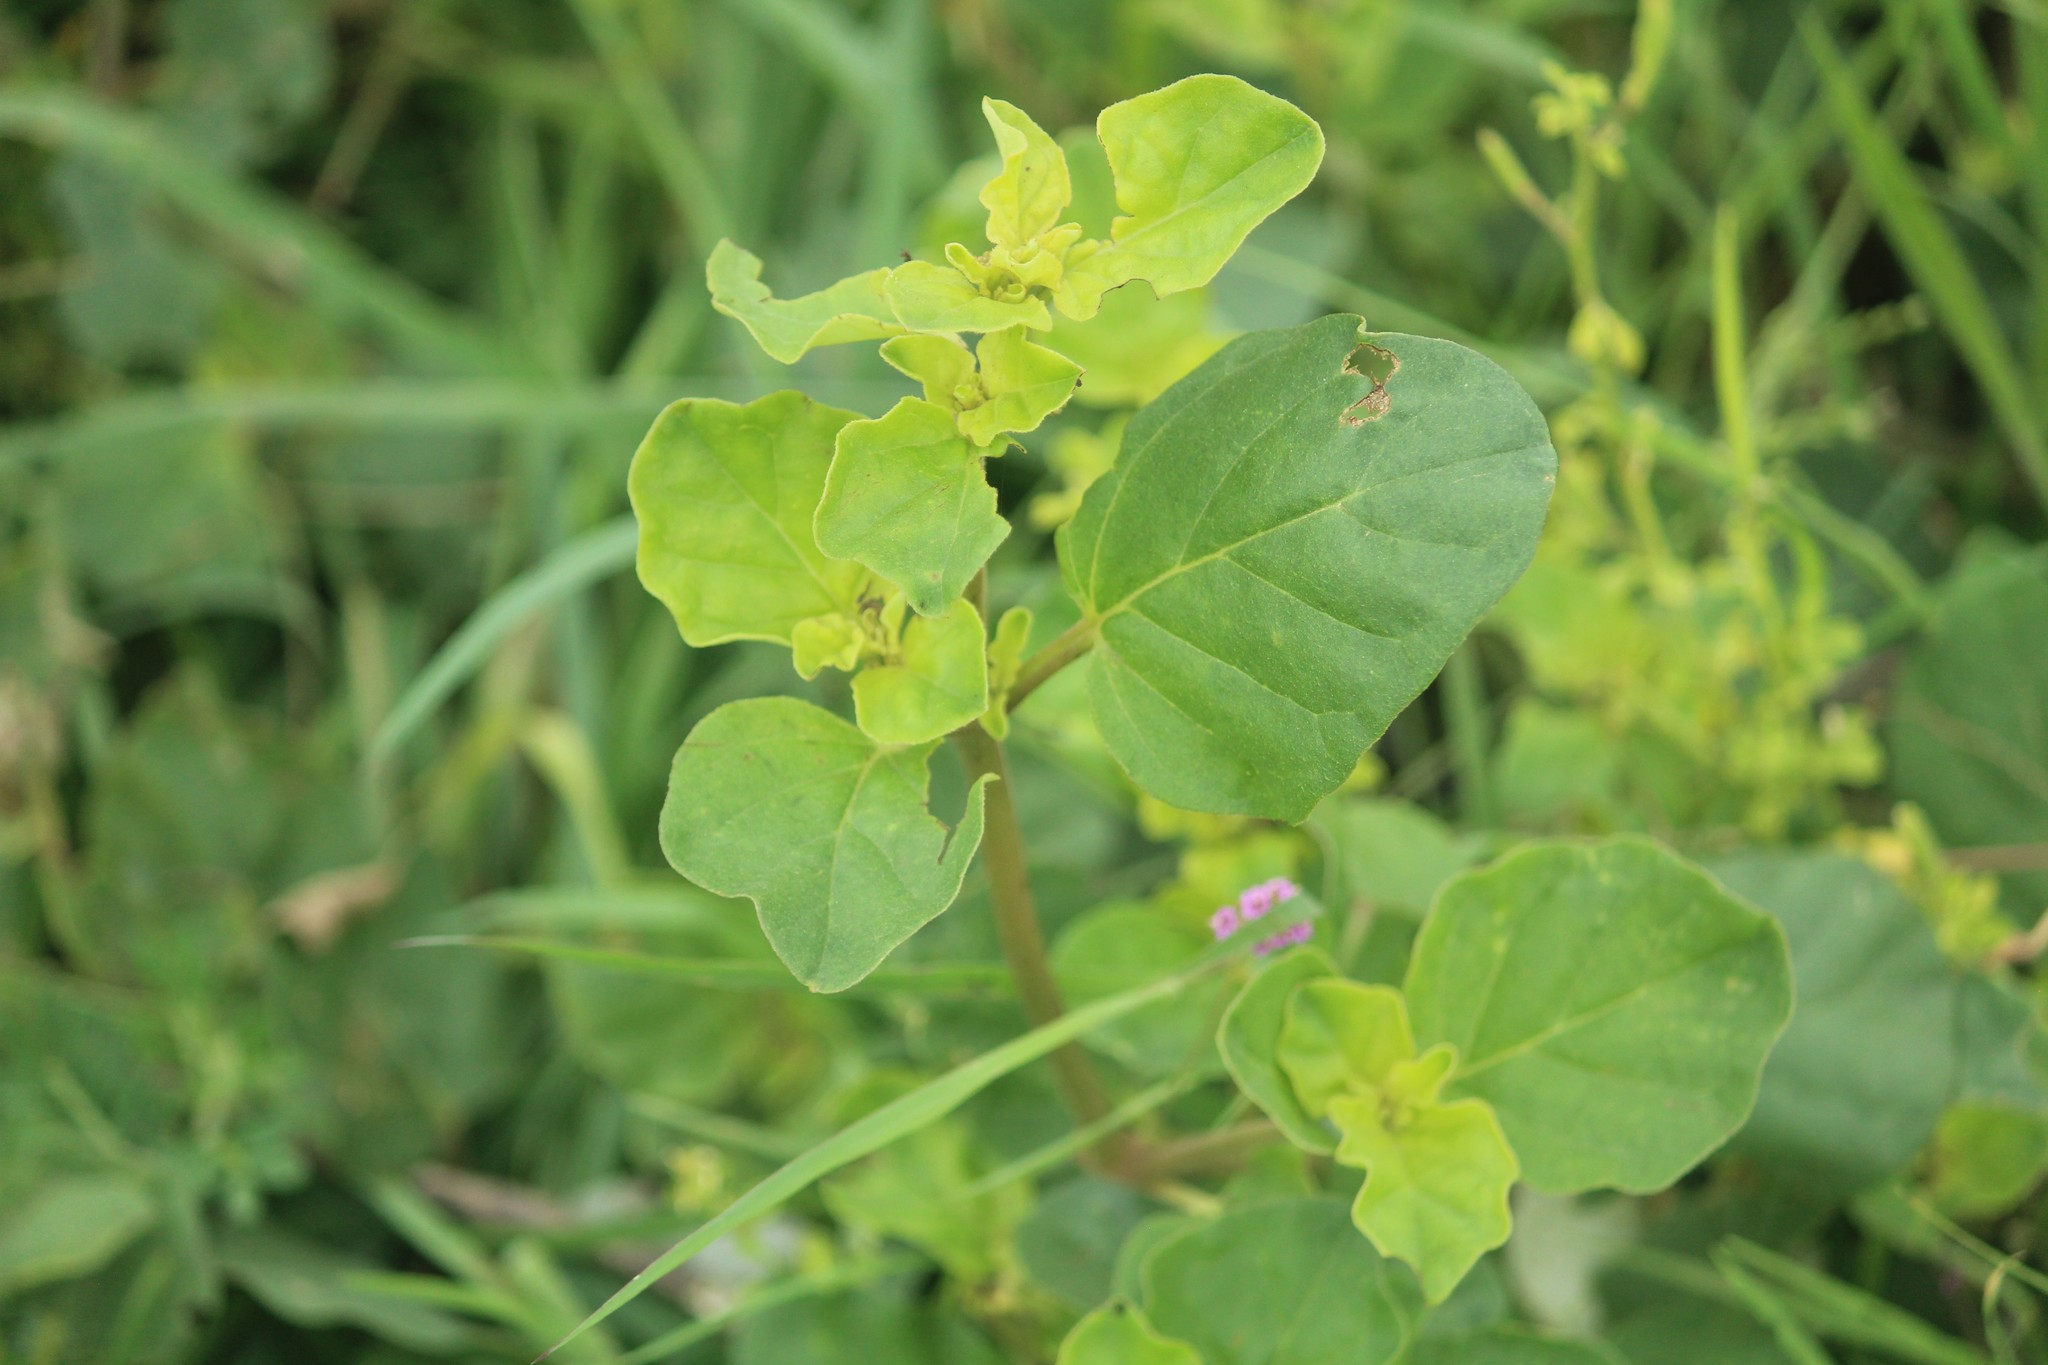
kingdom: Plantae
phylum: Tracheophyta
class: Magnoliopsida
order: Caryophyllales
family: Nyctaginaceae
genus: Boerhavia
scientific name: Boerhavia diffusa
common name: Red spiderling
